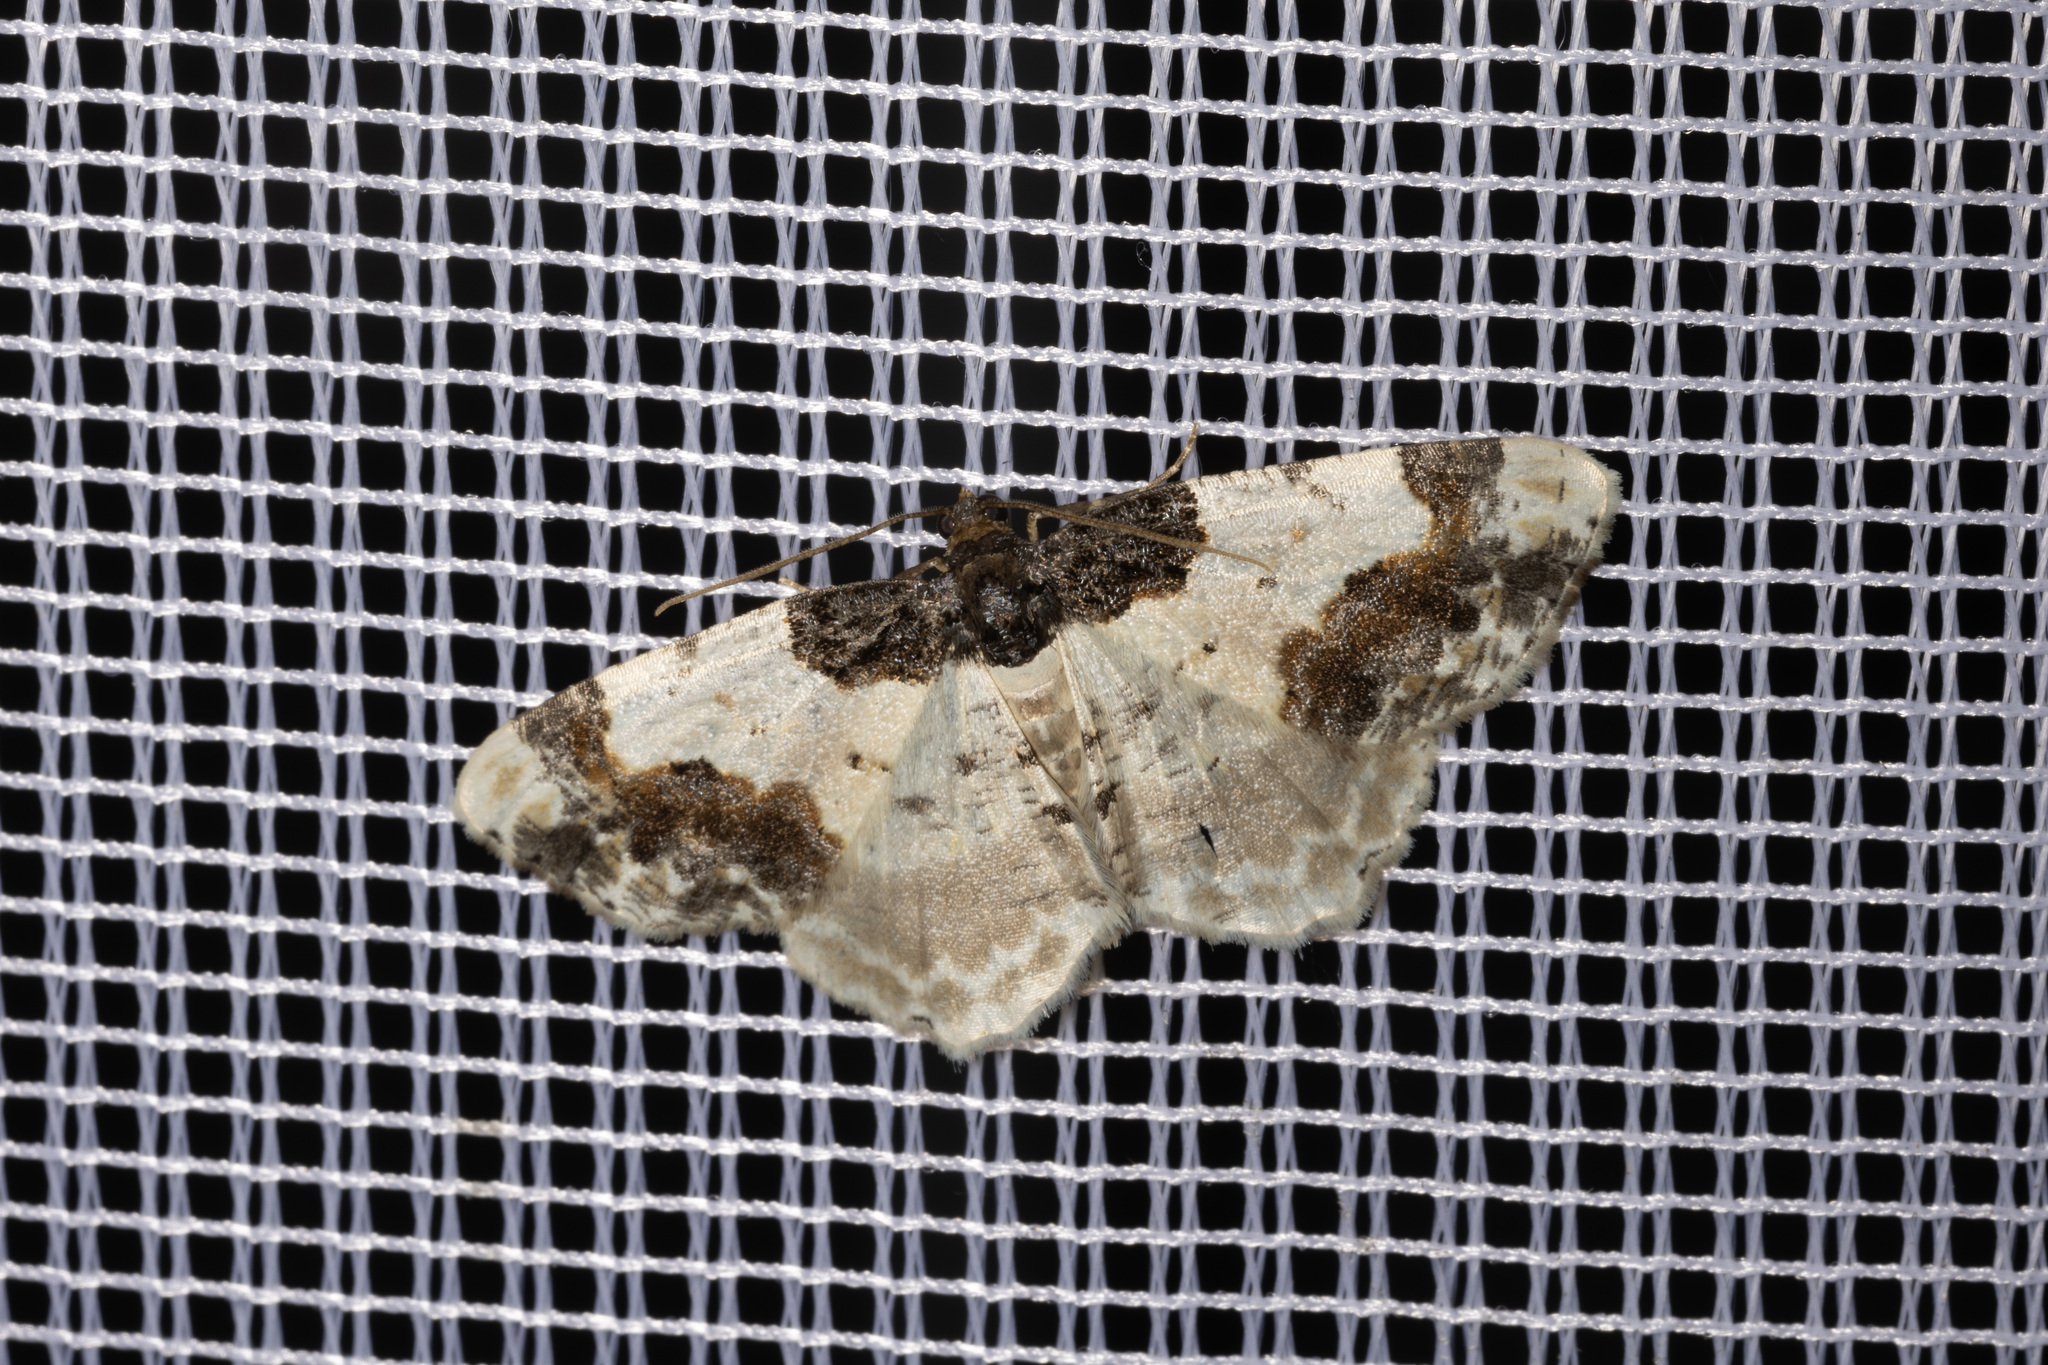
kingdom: Animalia
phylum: Arthropoda
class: Insecta
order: Lepidoptera
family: Geometridae
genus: Ligdia
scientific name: Ligdia adustata
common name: Scorched carpet
